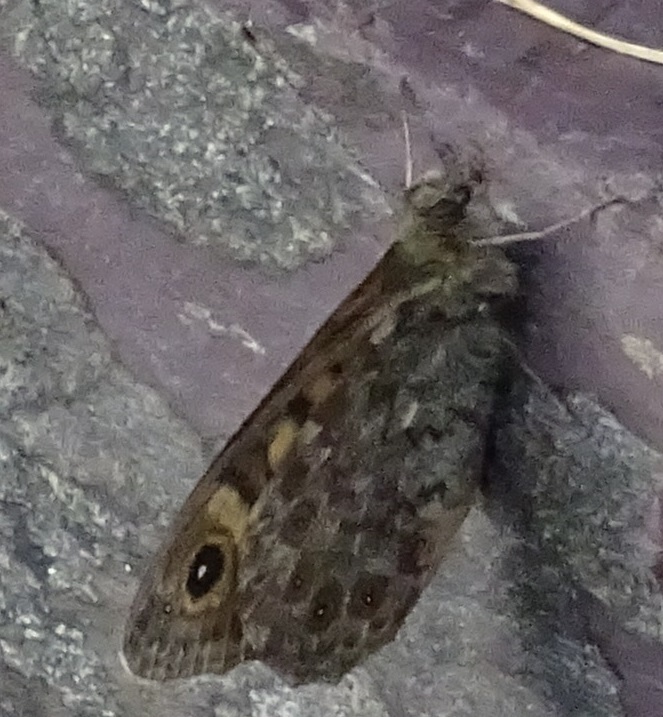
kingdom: Animalia
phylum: Arthropoda
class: Insecta
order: Lepidoptera
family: Nymphalidae
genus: Pararge
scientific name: Pararge Lasiommata megera
